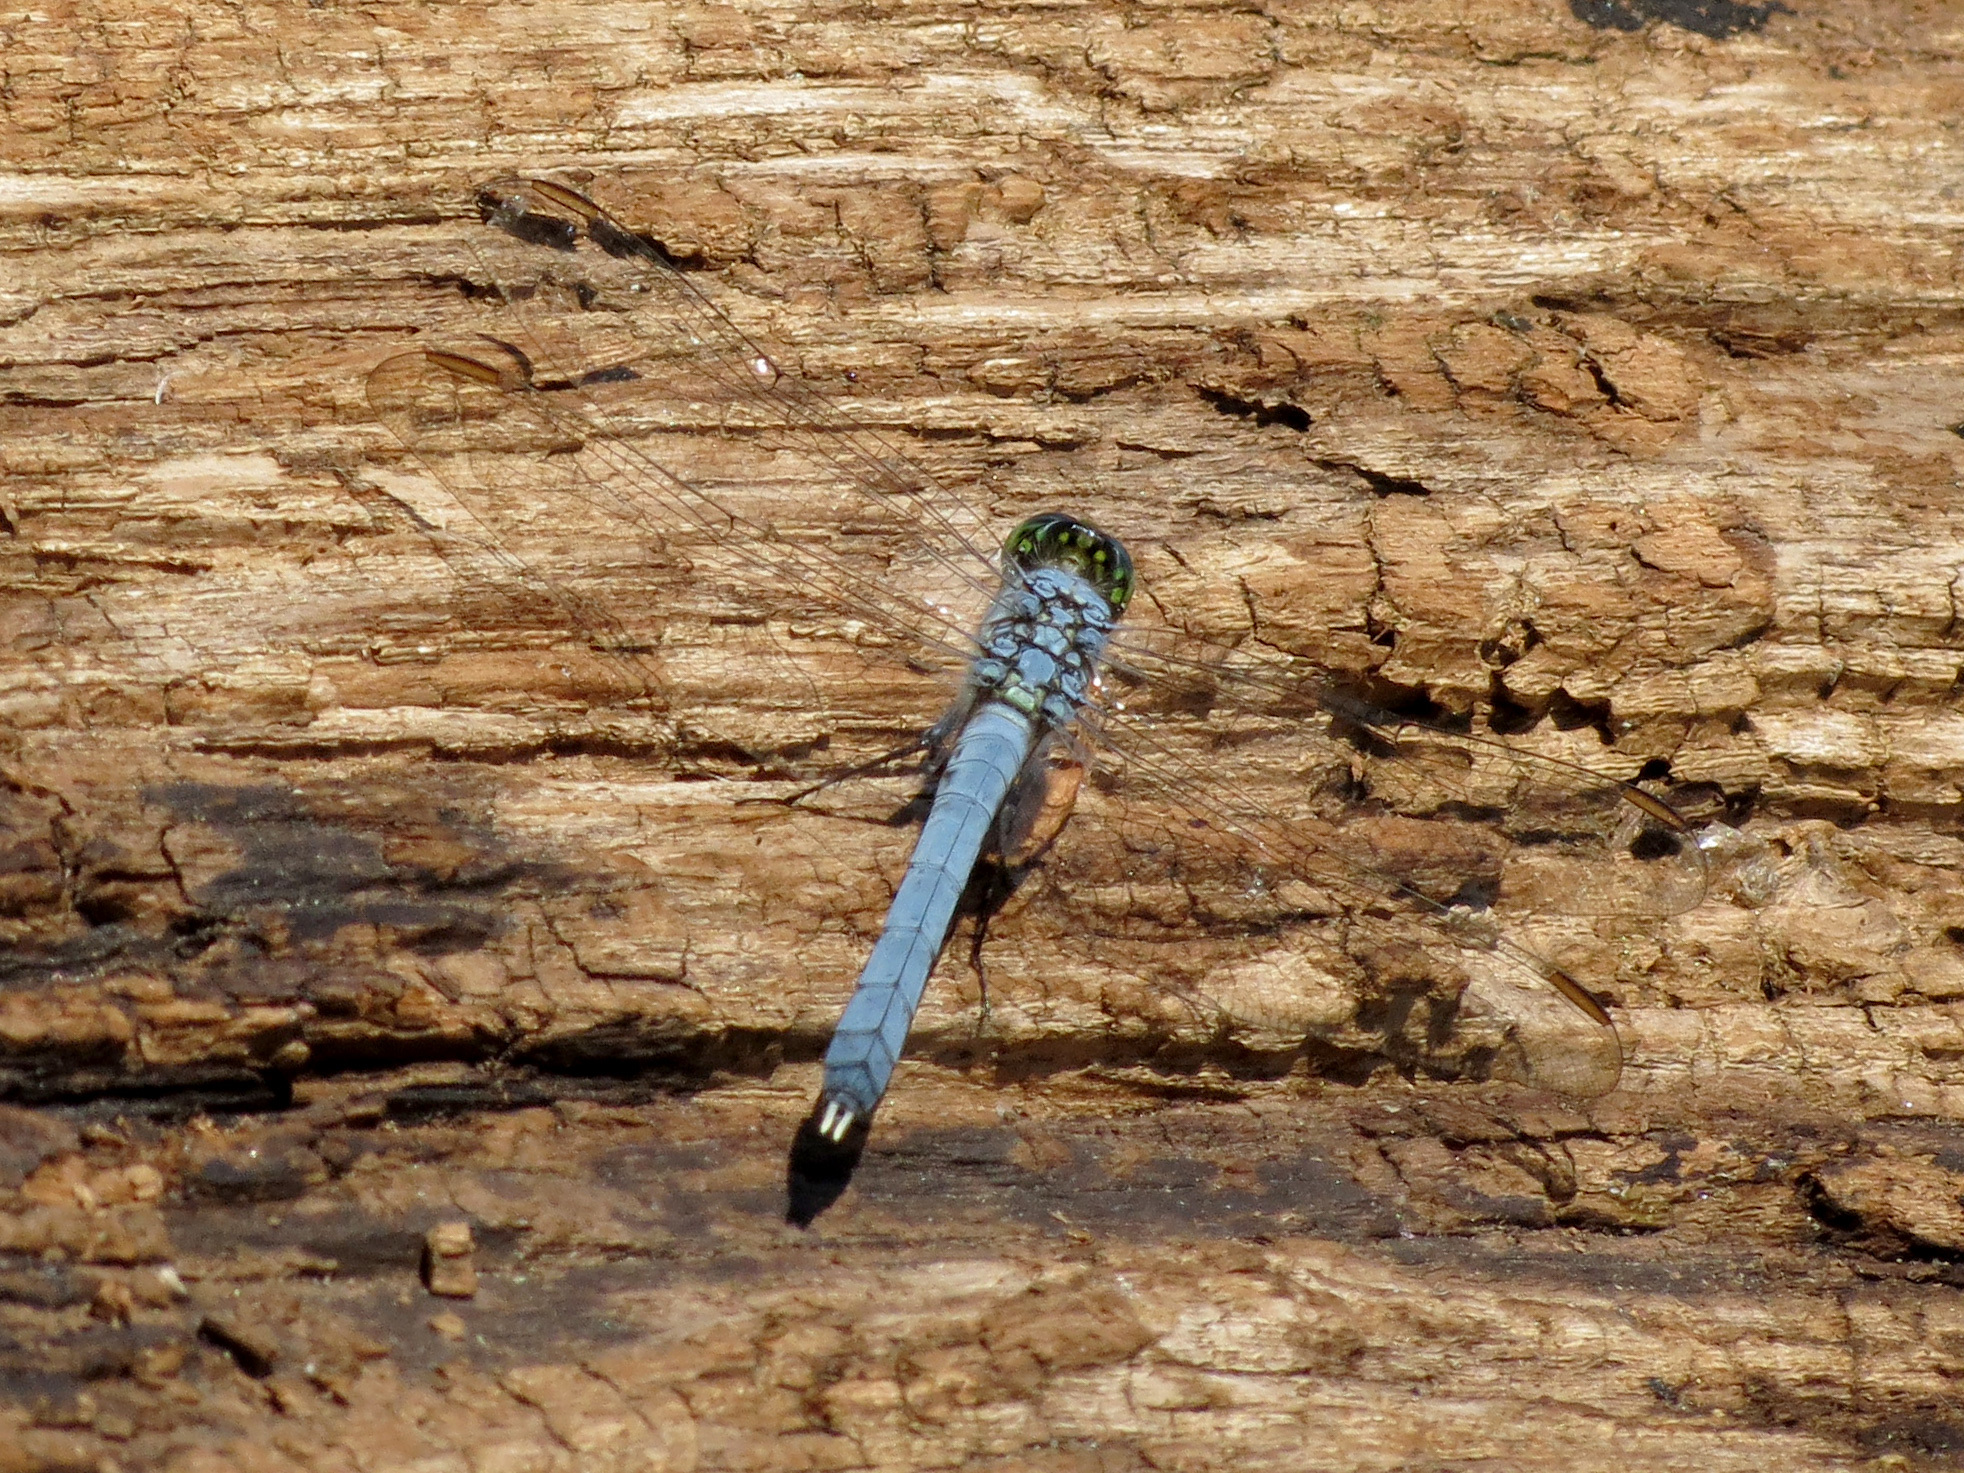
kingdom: Animalia
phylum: Arthropoda
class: Insecta
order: Odonata
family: Libellulidae
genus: Erythemis
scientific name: Erythemis simplicicollis
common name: Eastern pondhawk
